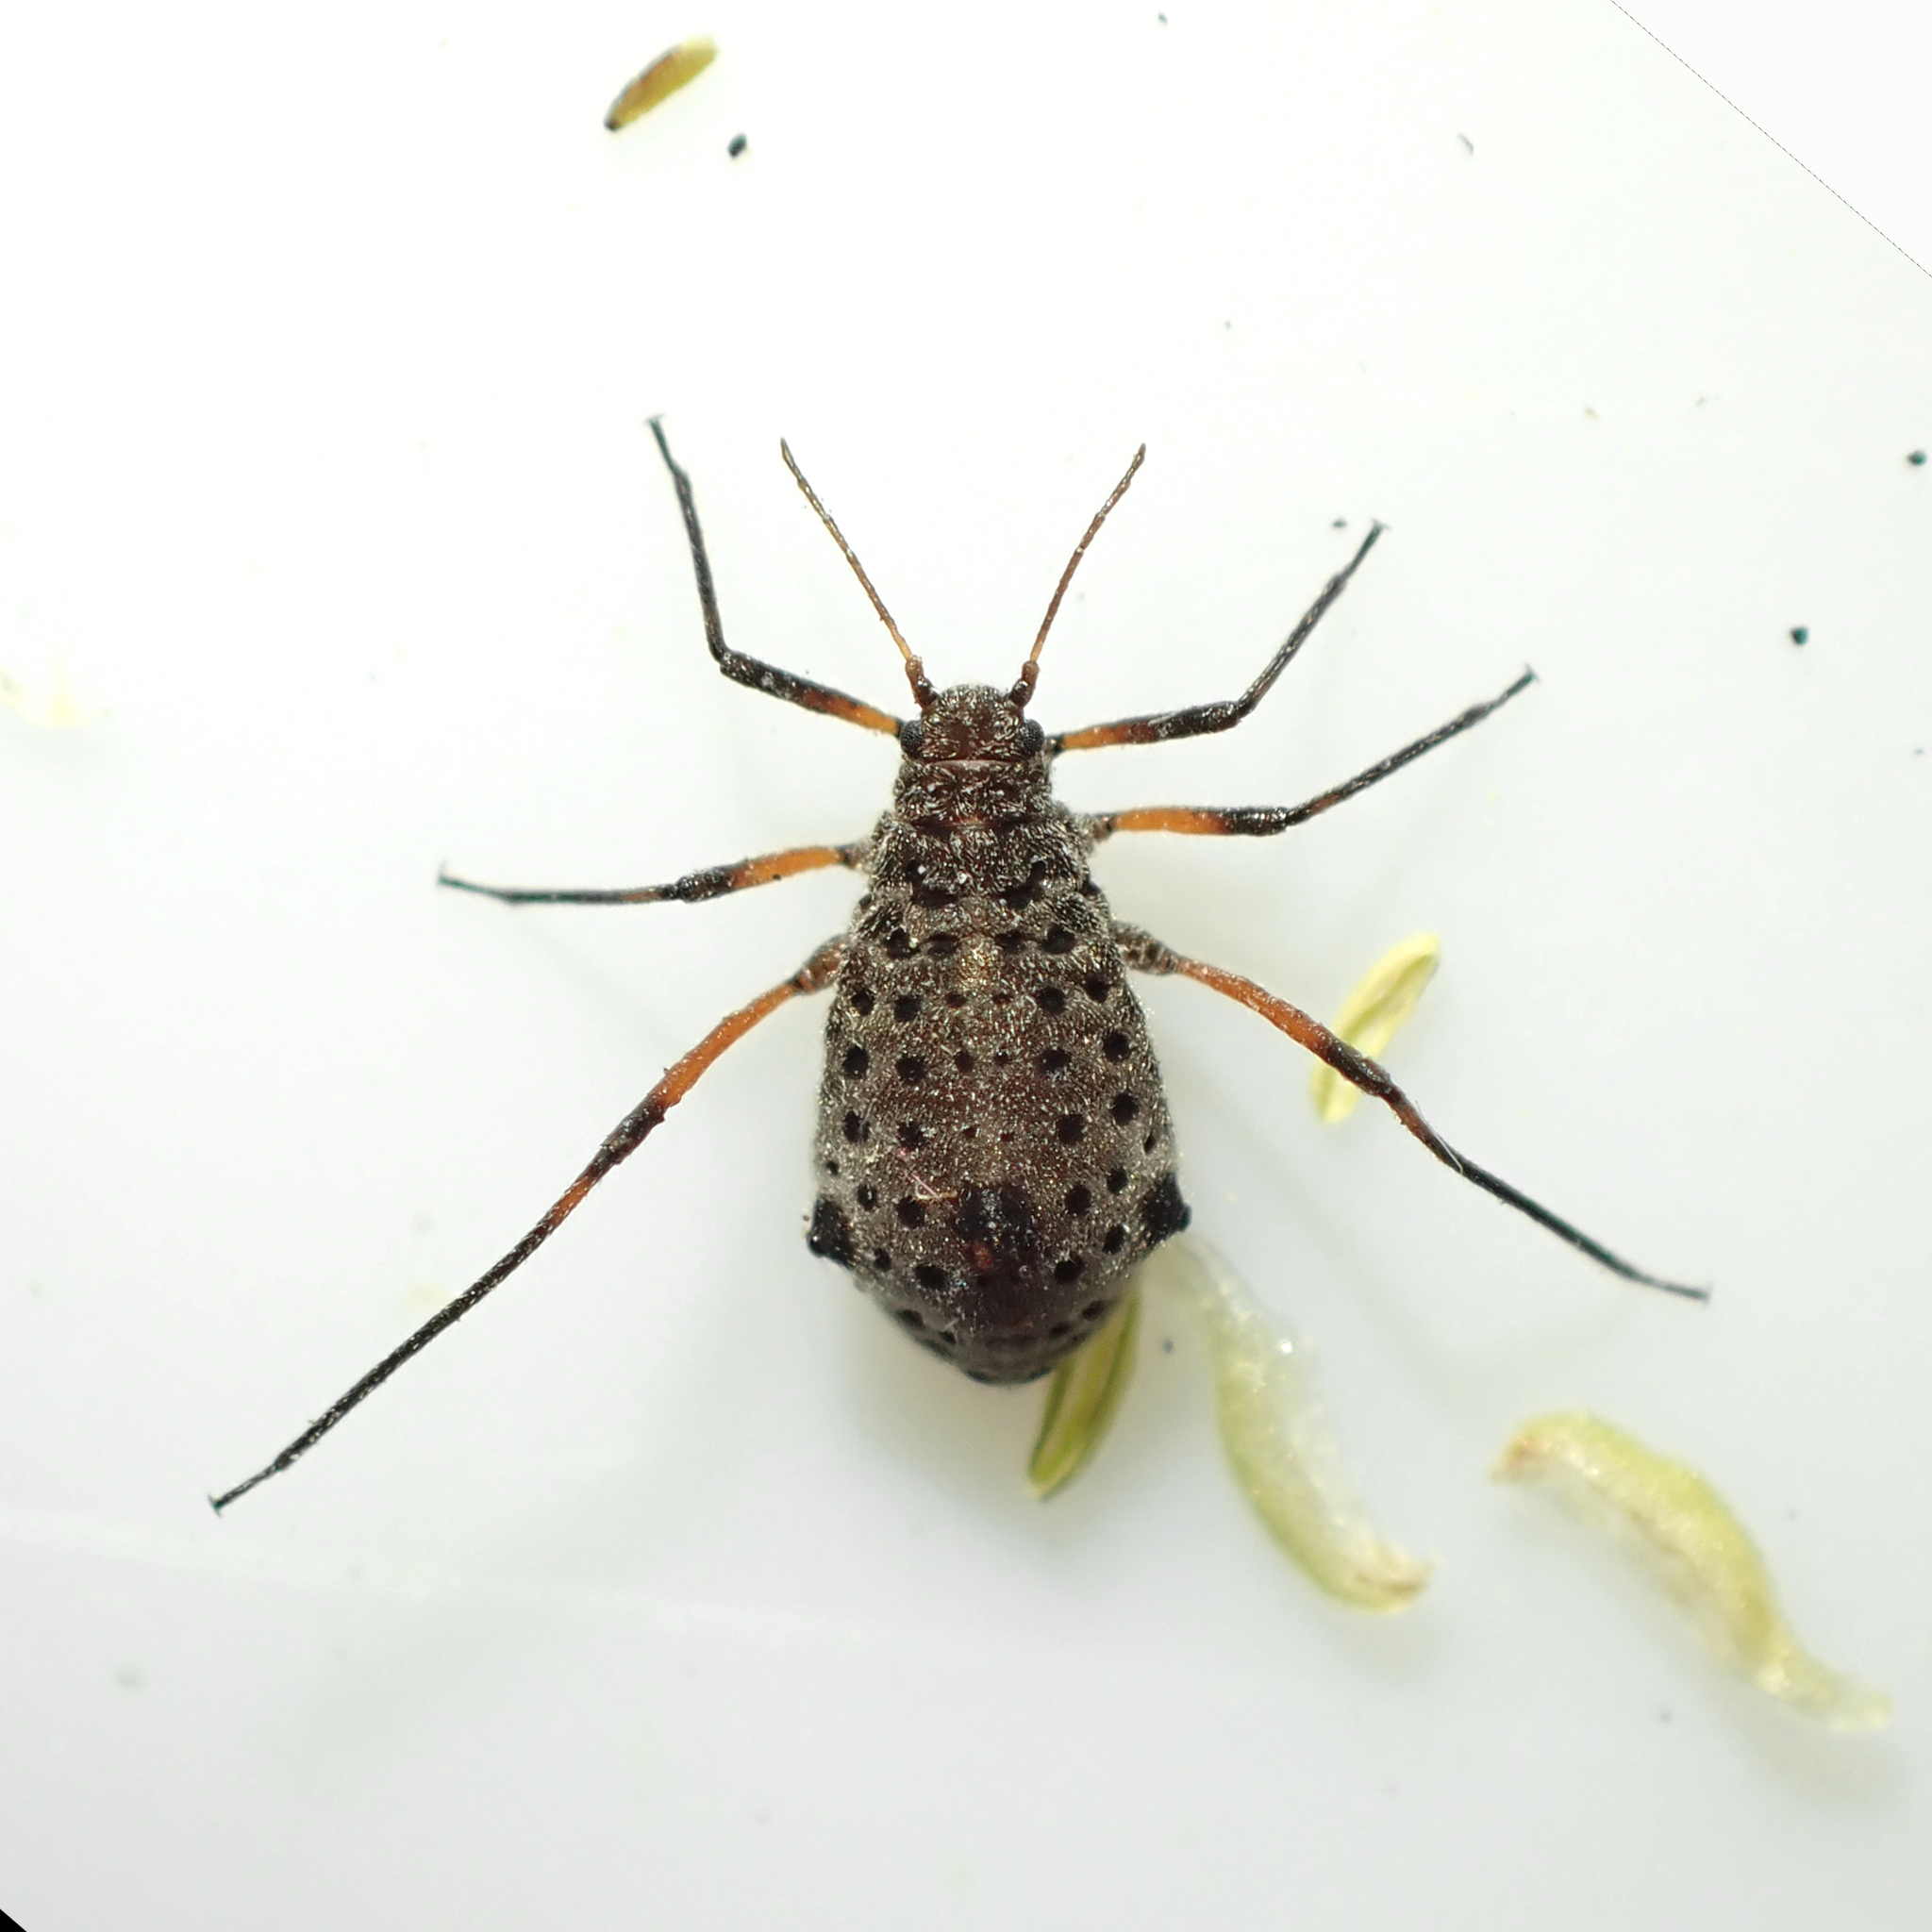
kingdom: Animalia
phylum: Arthropoda
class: Insecta
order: Hemiptera
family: Aphididae
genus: Tuberolachnus
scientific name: Tuberolachnus salignus
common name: Giant willow aphid
